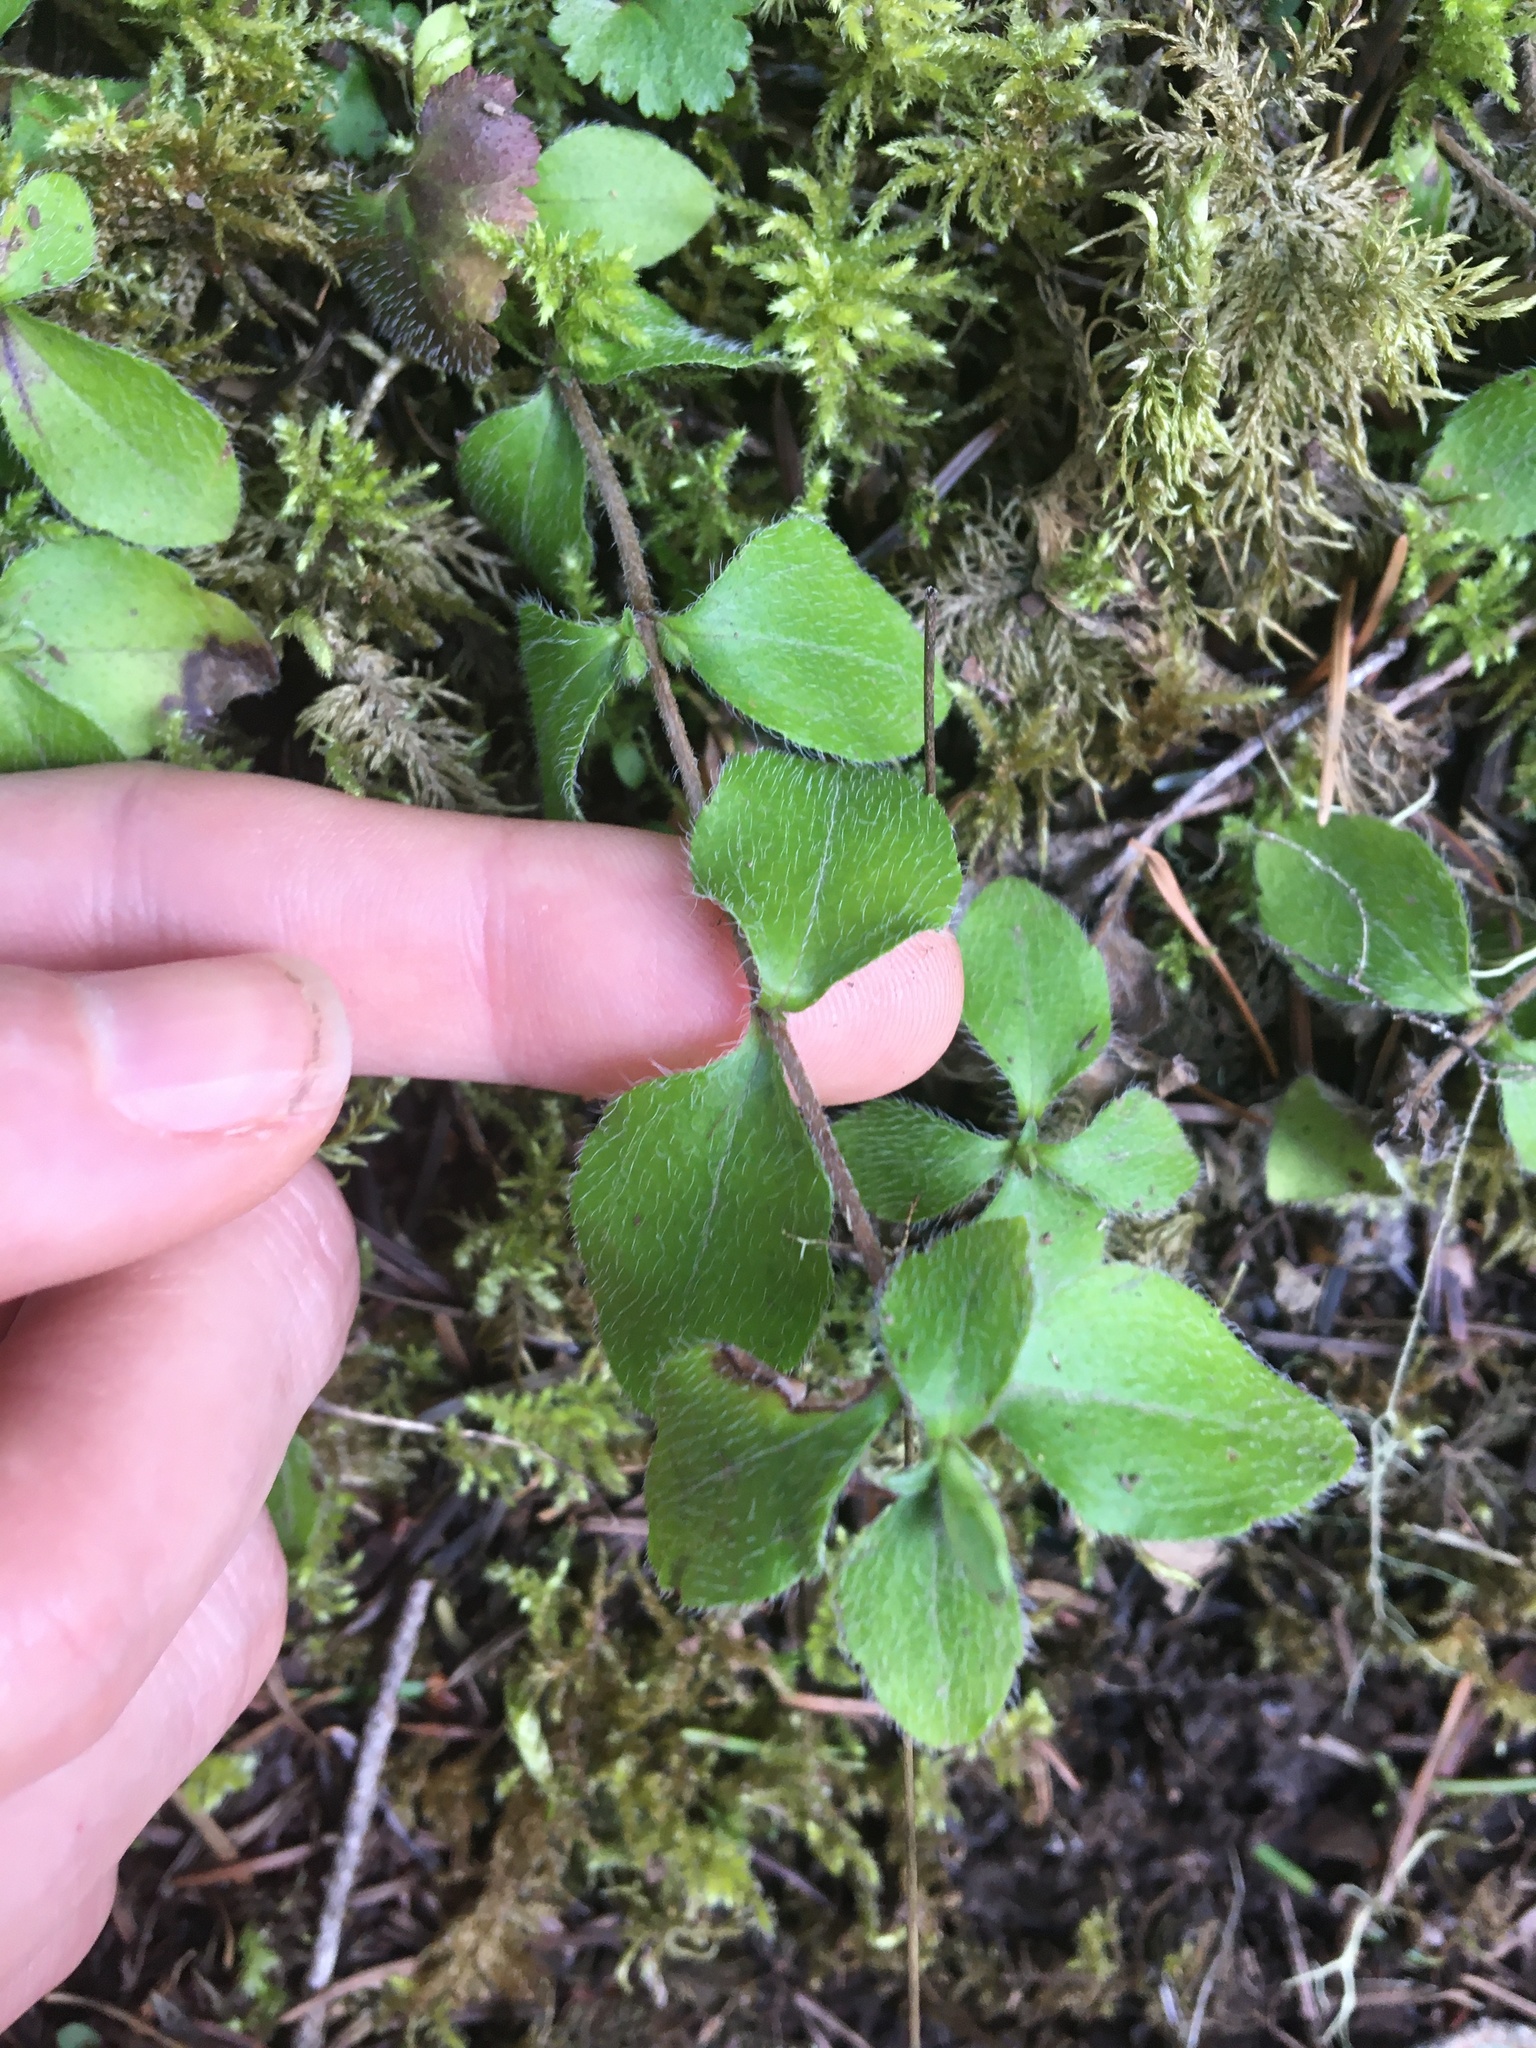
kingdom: Plantae
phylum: Tracheophyta
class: Magnoliopsida
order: Cornales
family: Hydrangeaceae
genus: Whipplea
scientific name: Whipplea modesta
